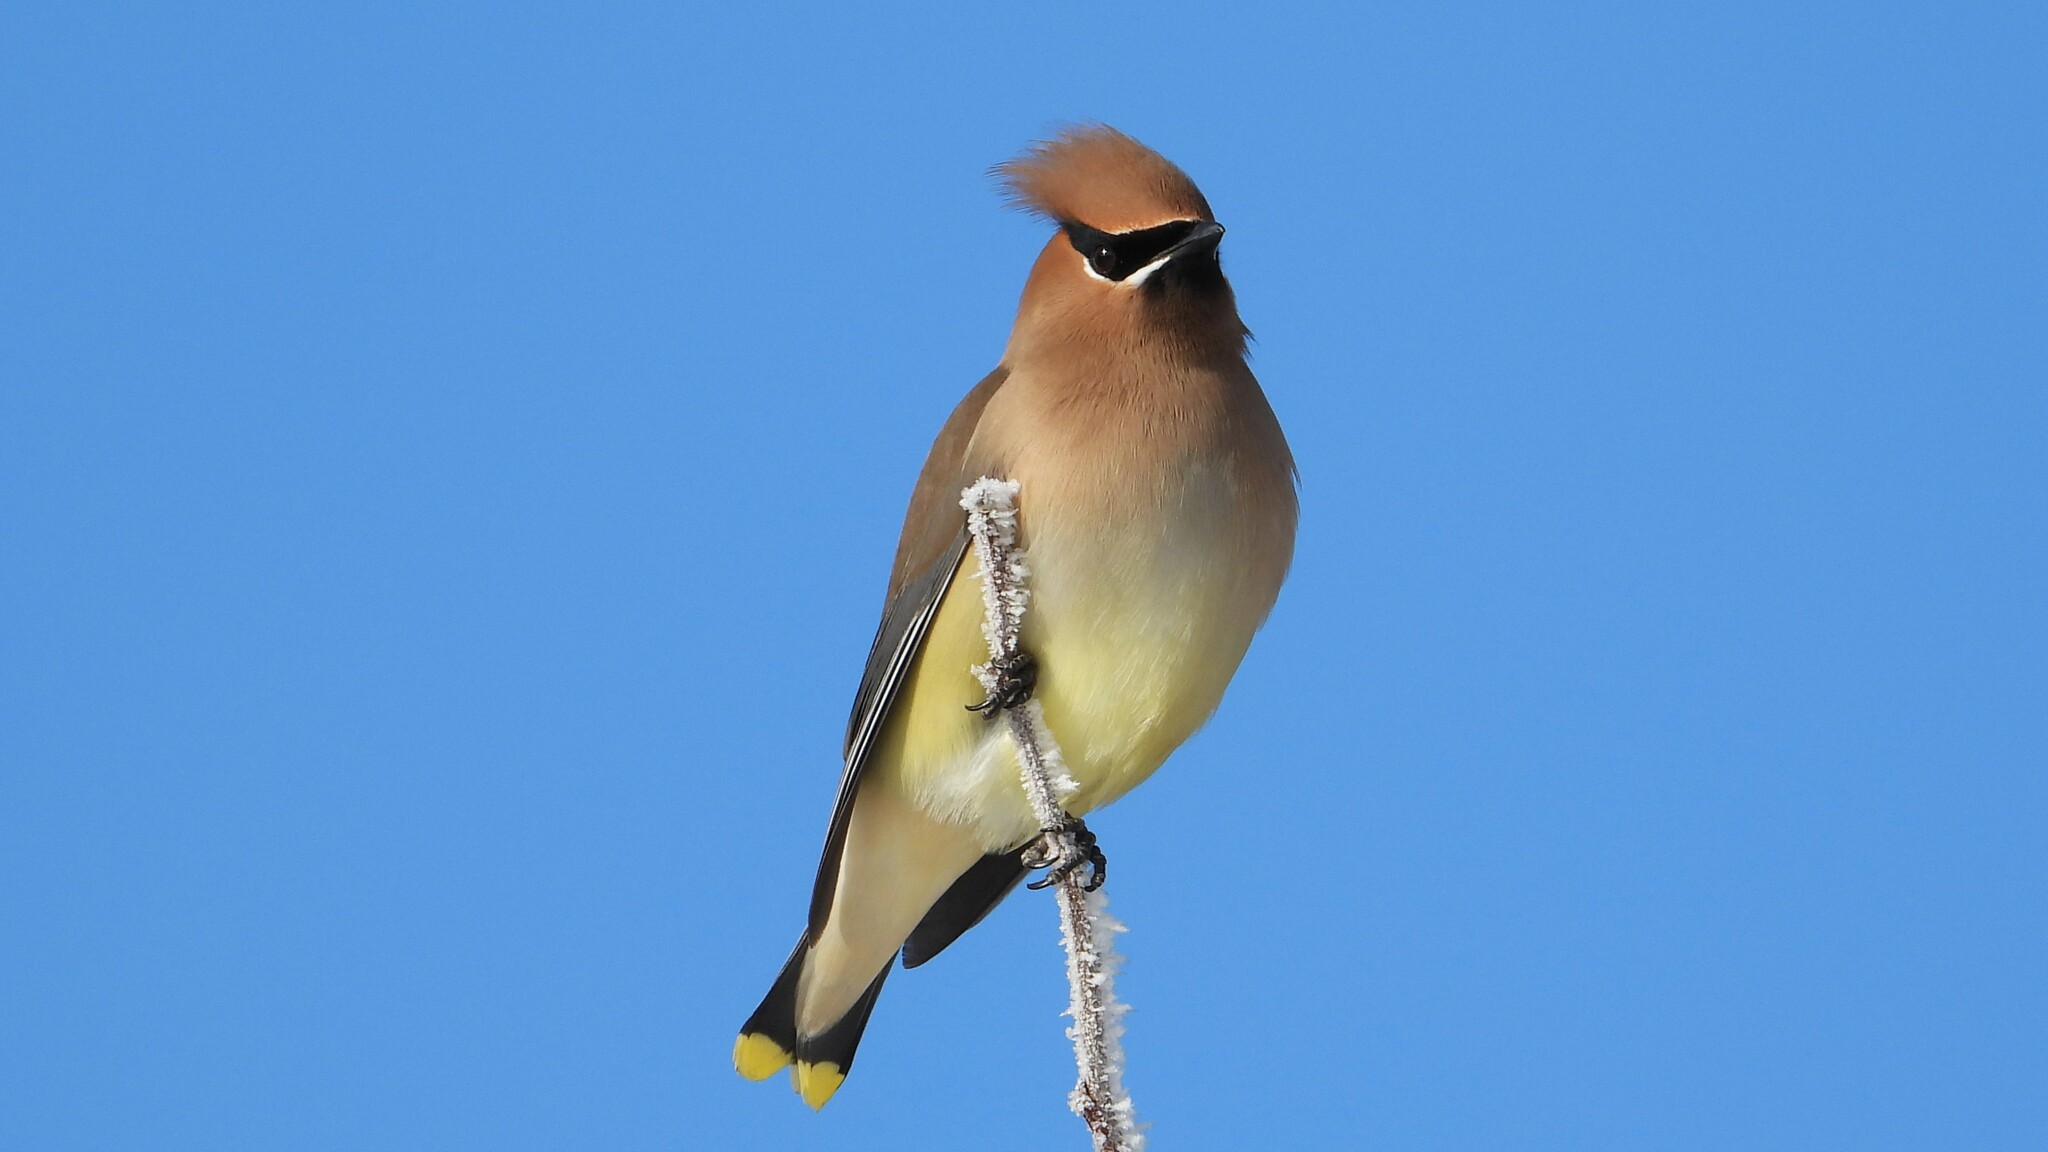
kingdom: Animalia
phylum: Chordata
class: Aves
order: Passeriformes
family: Bombycillidae
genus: Bombycilla
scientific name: Bombycilla cedrorum
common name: Cedar waxwing
